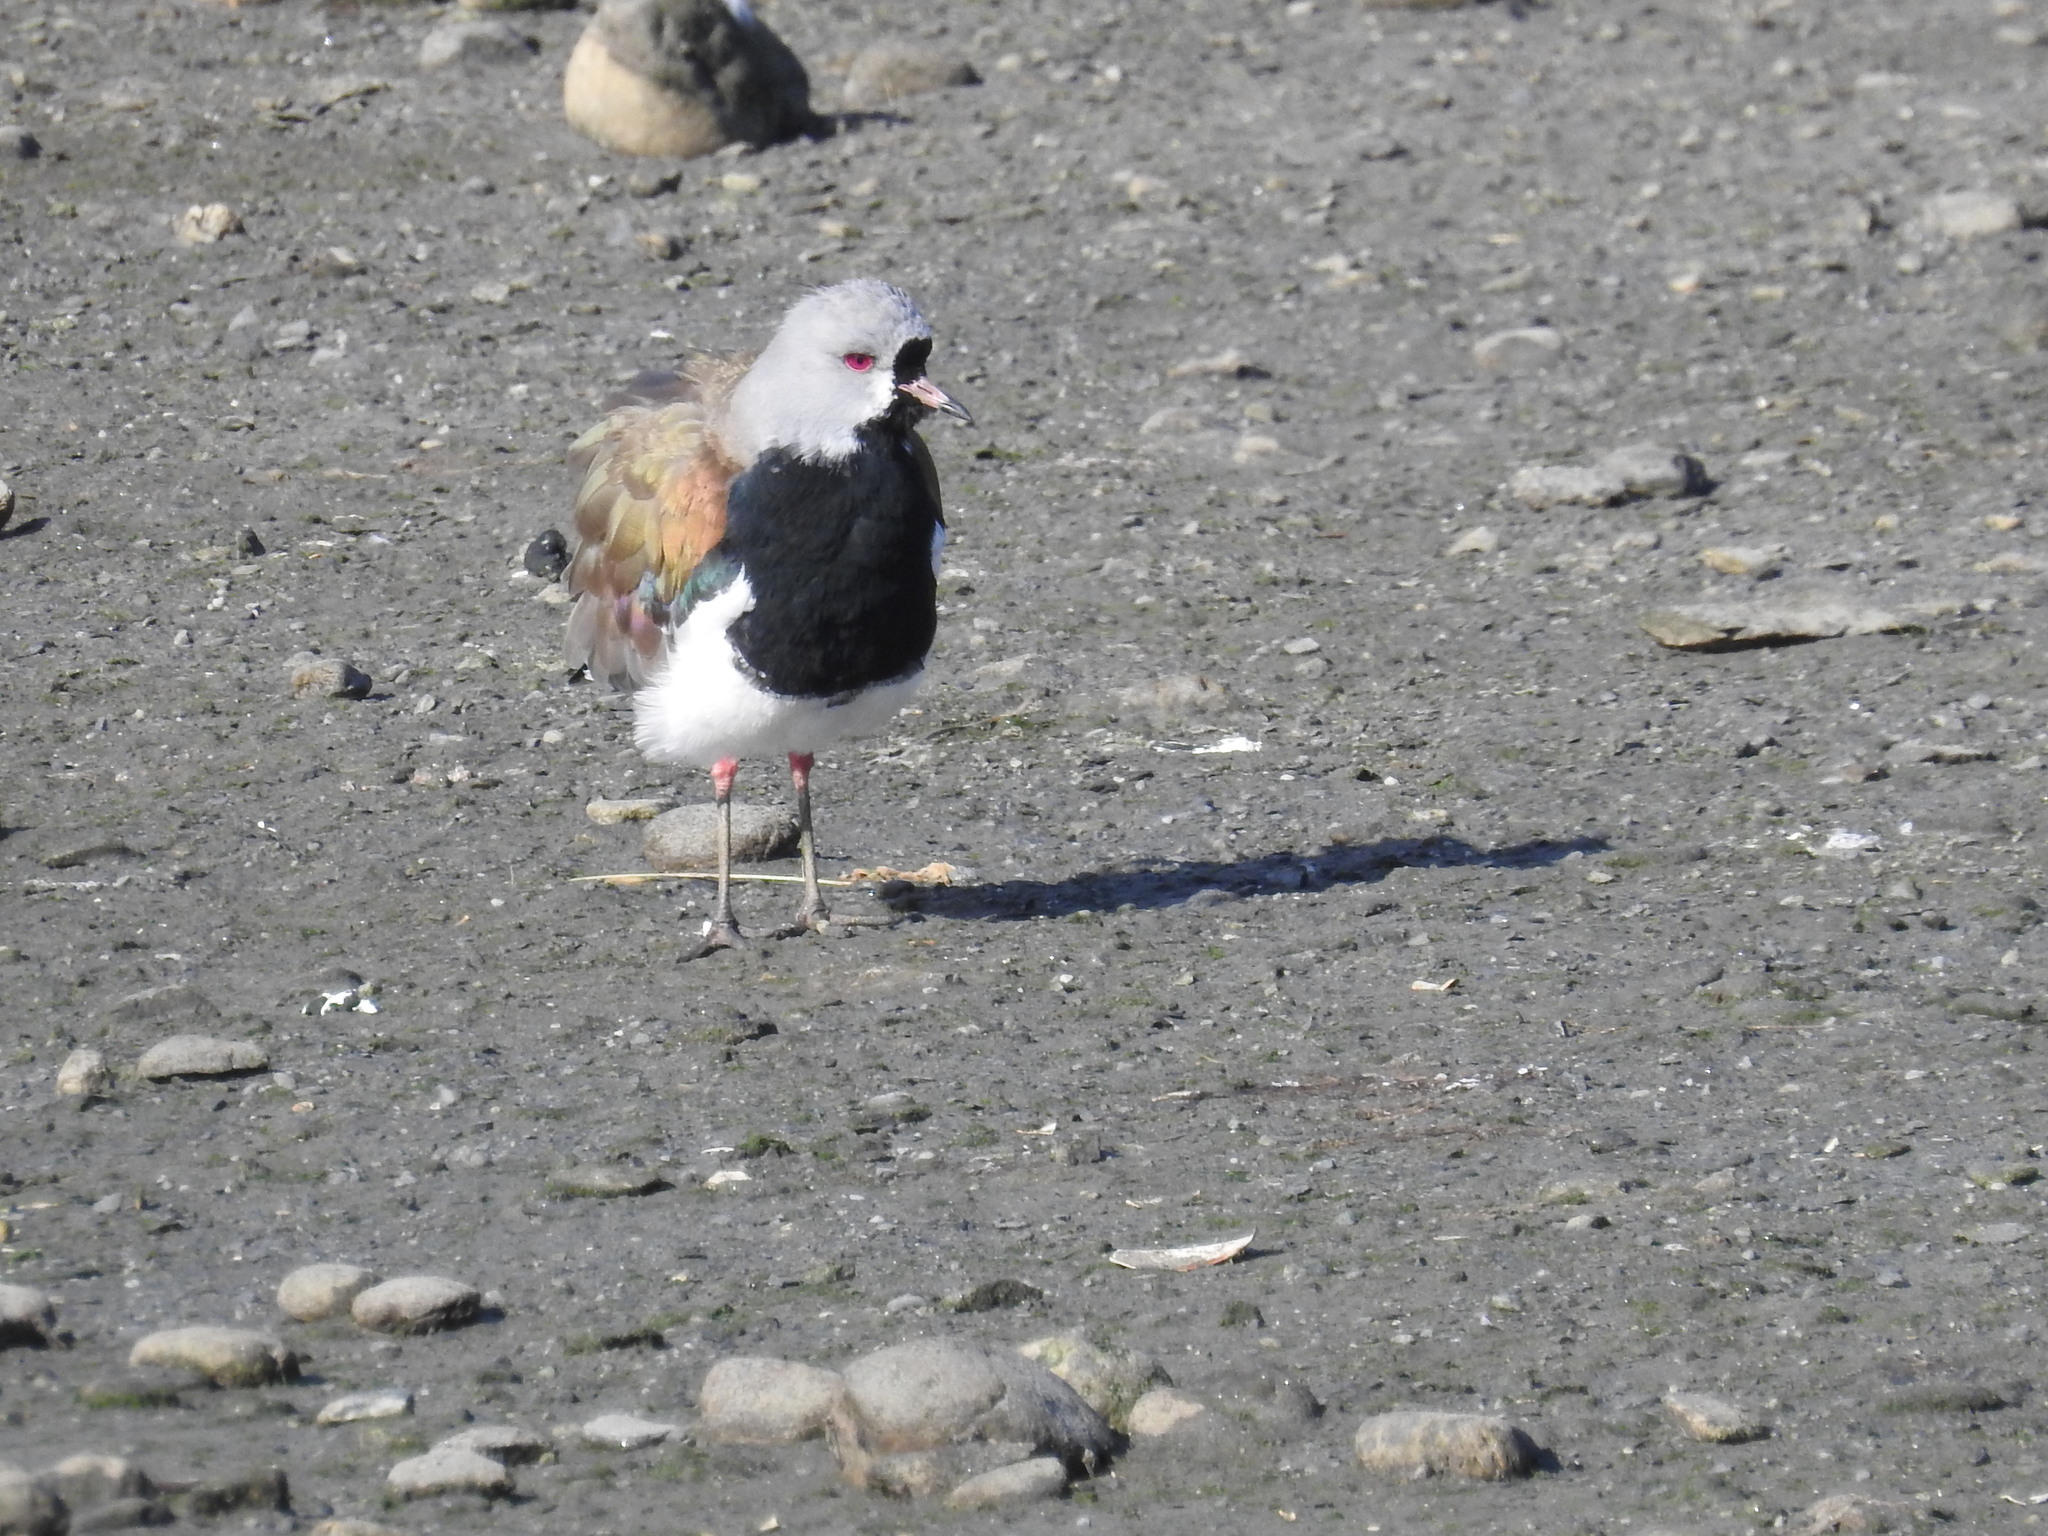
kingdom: Animalia
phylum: Chordata
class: Aves
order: Charadriiformes
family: Charadriidae
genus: Vanellus
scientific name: Vanellus chilensis
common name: Southern lapwing
